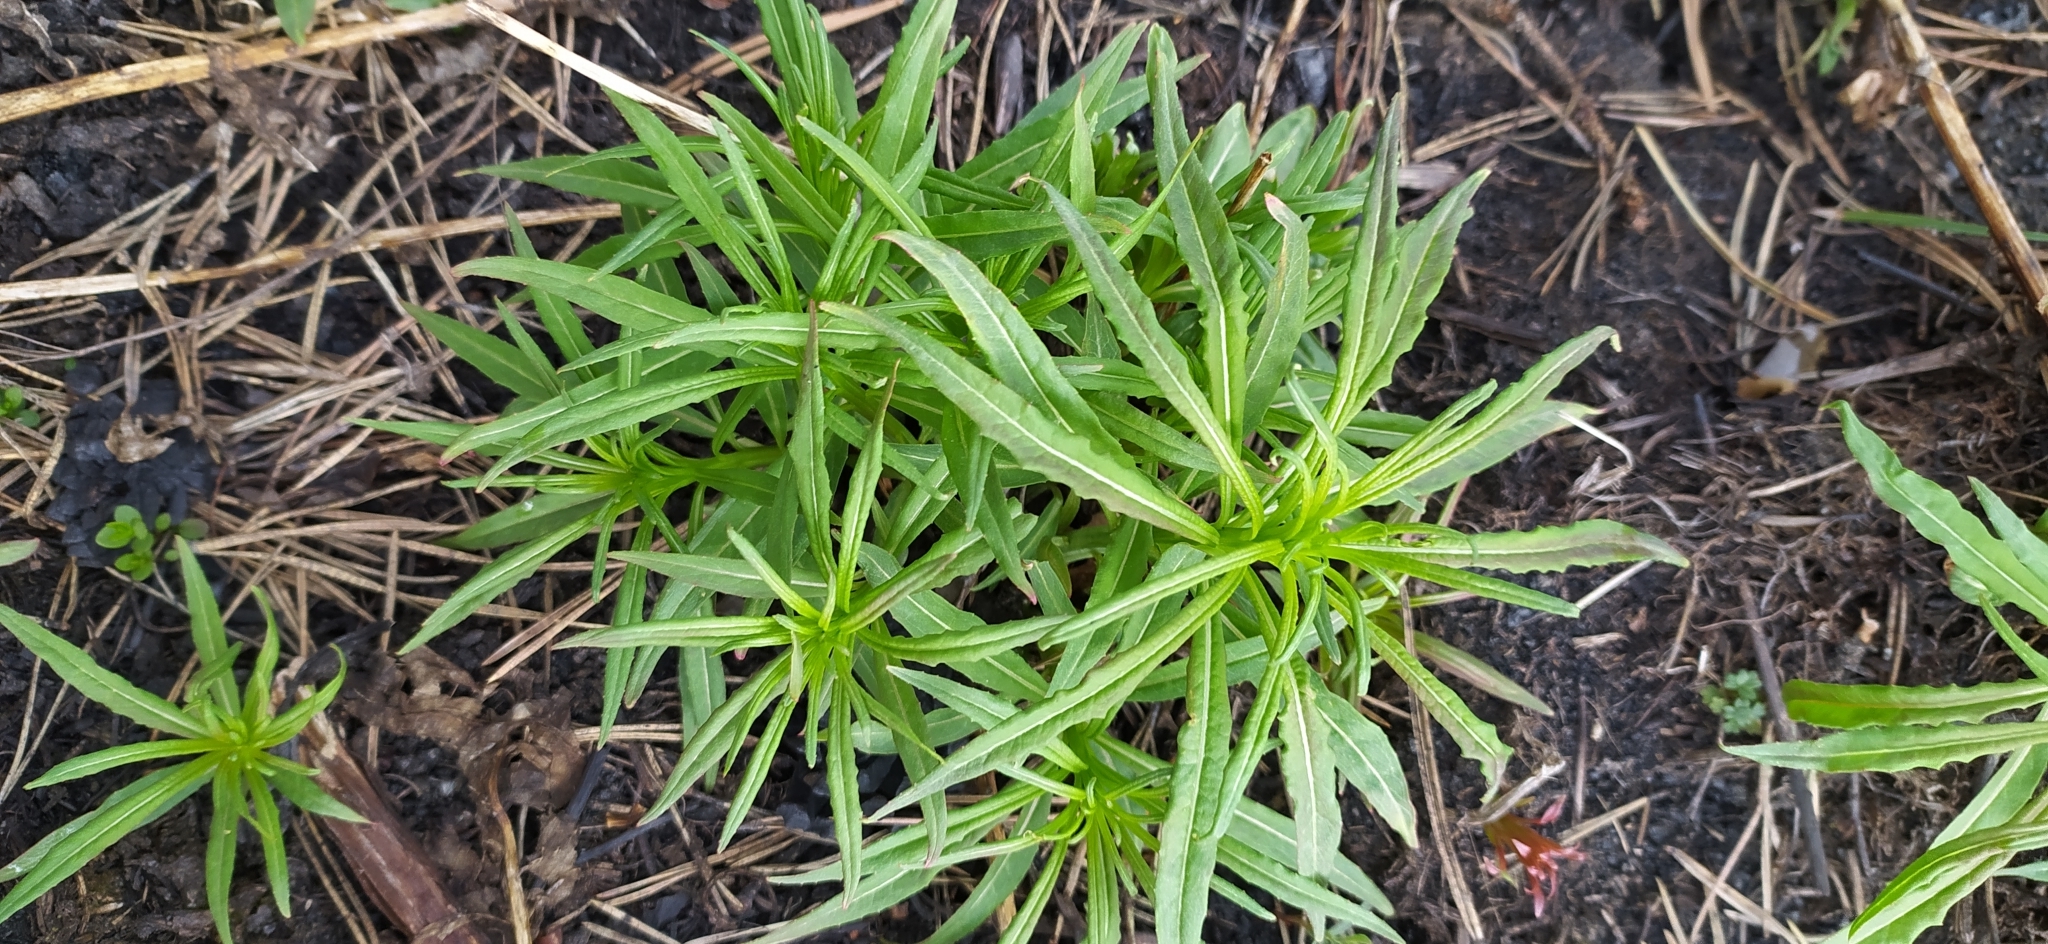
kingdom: Plantae
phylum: Tracheophyta
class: Magnoliopsida
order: Myrtales
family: Onagraceae
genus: Chamaenerion
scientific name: Chamaenerion angustifolium
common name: Fireweed
